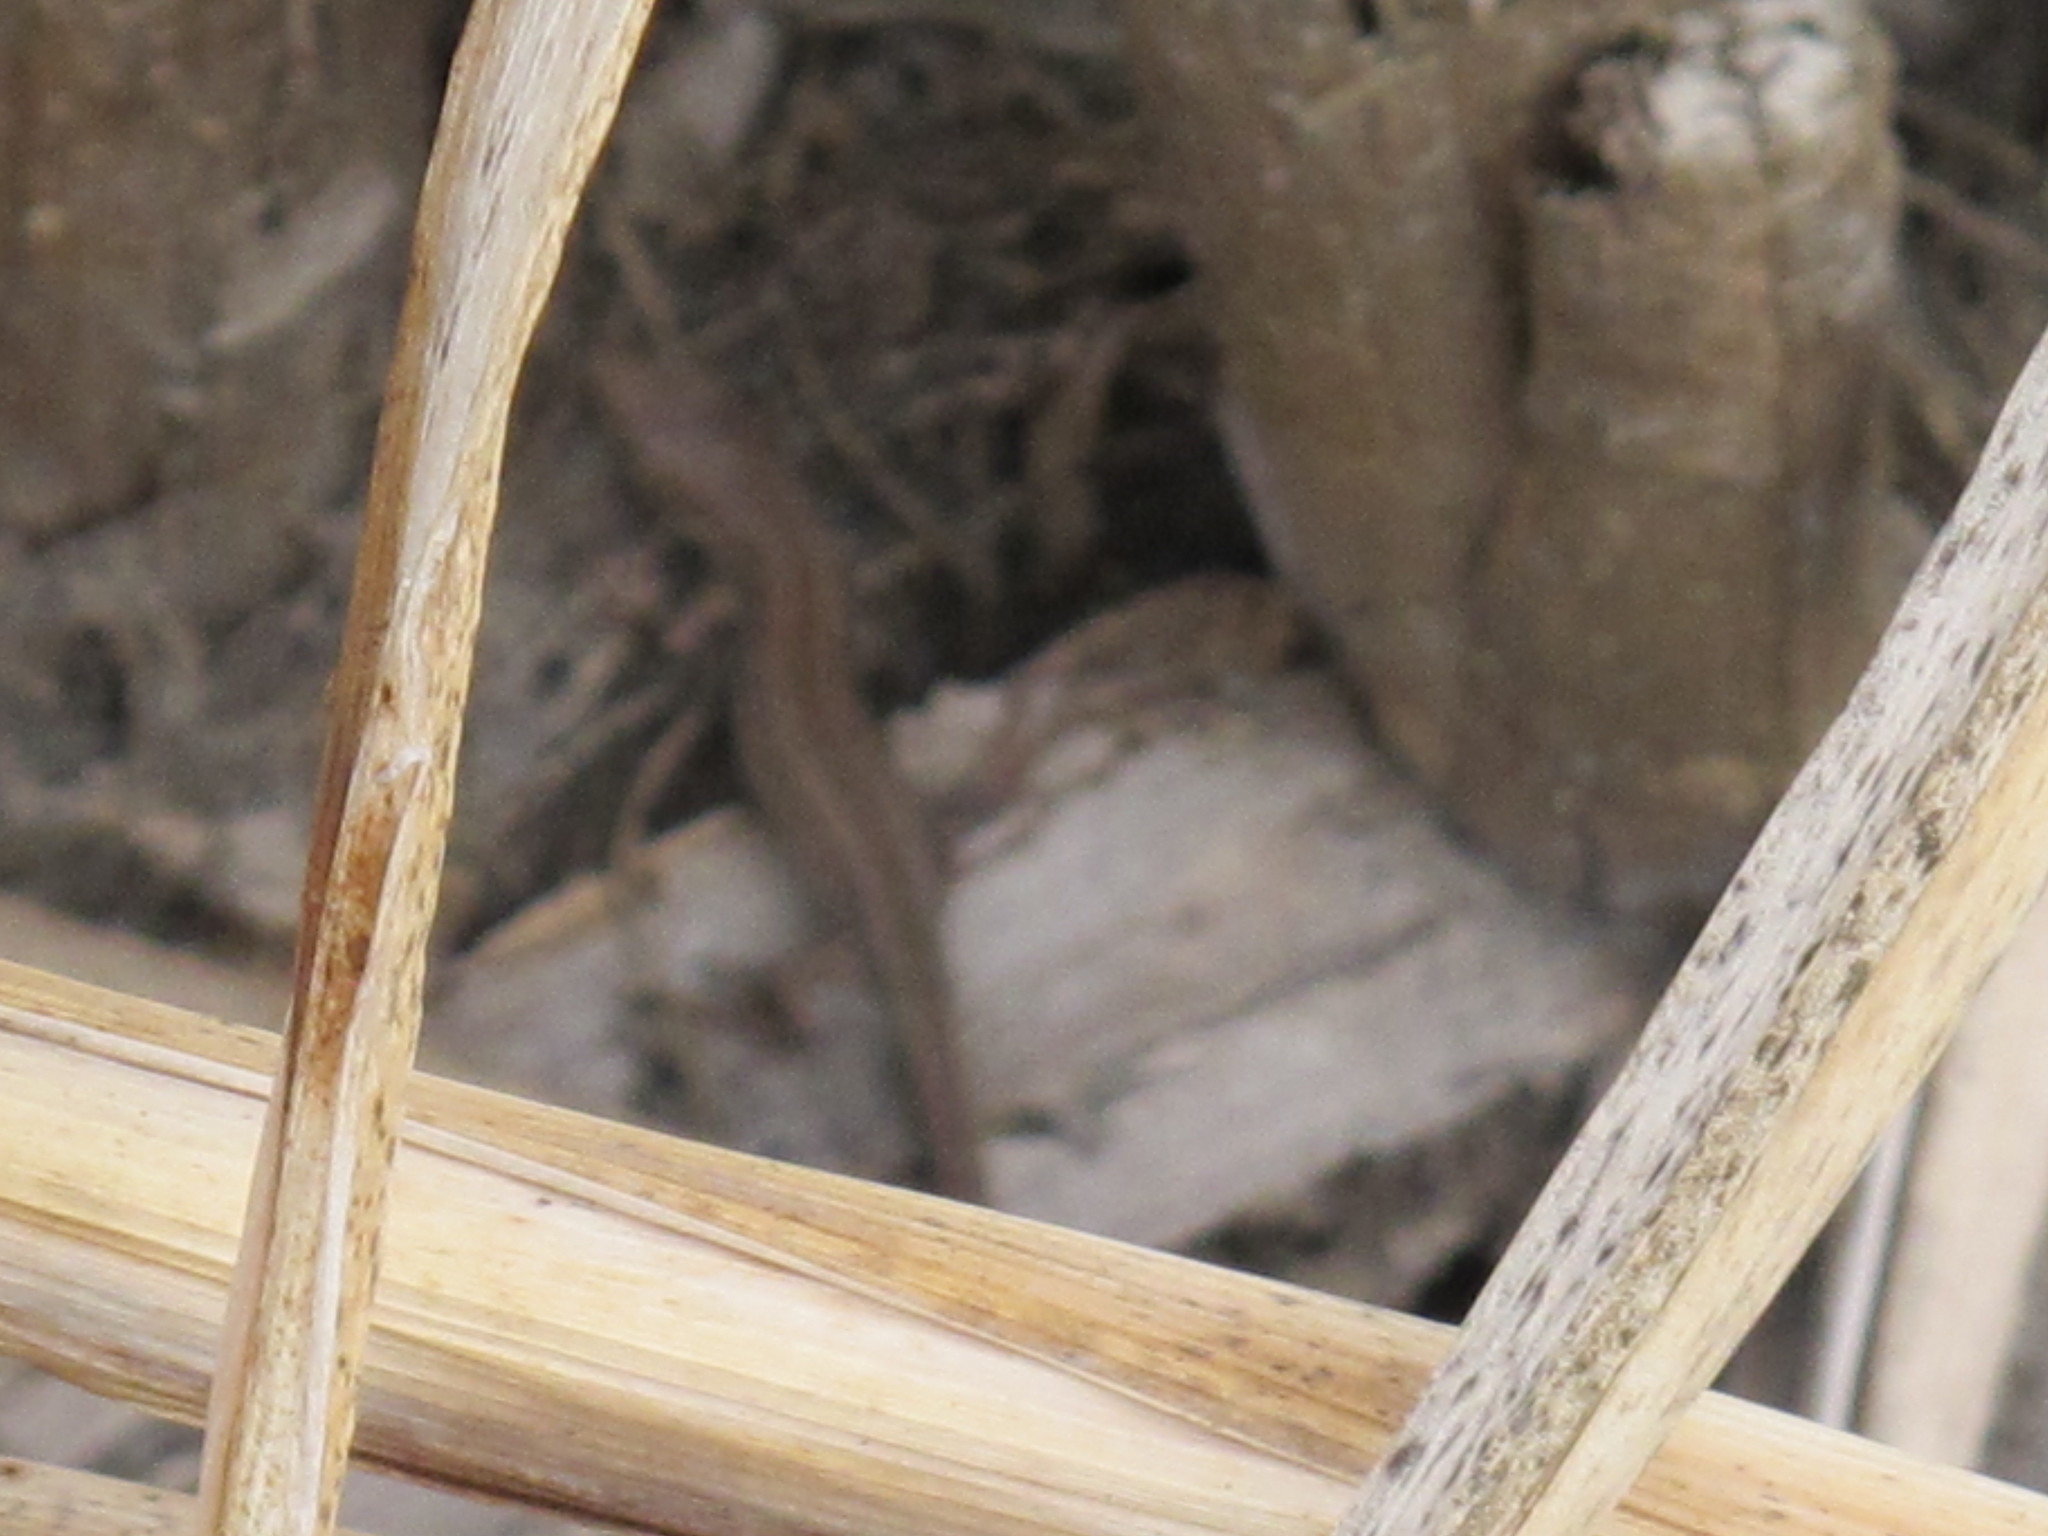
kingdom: Animalia
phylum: Chordata
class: Squamata
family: Lacertidae
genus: Lacerta
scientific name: Lacerta agilis
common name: Sand lizard
